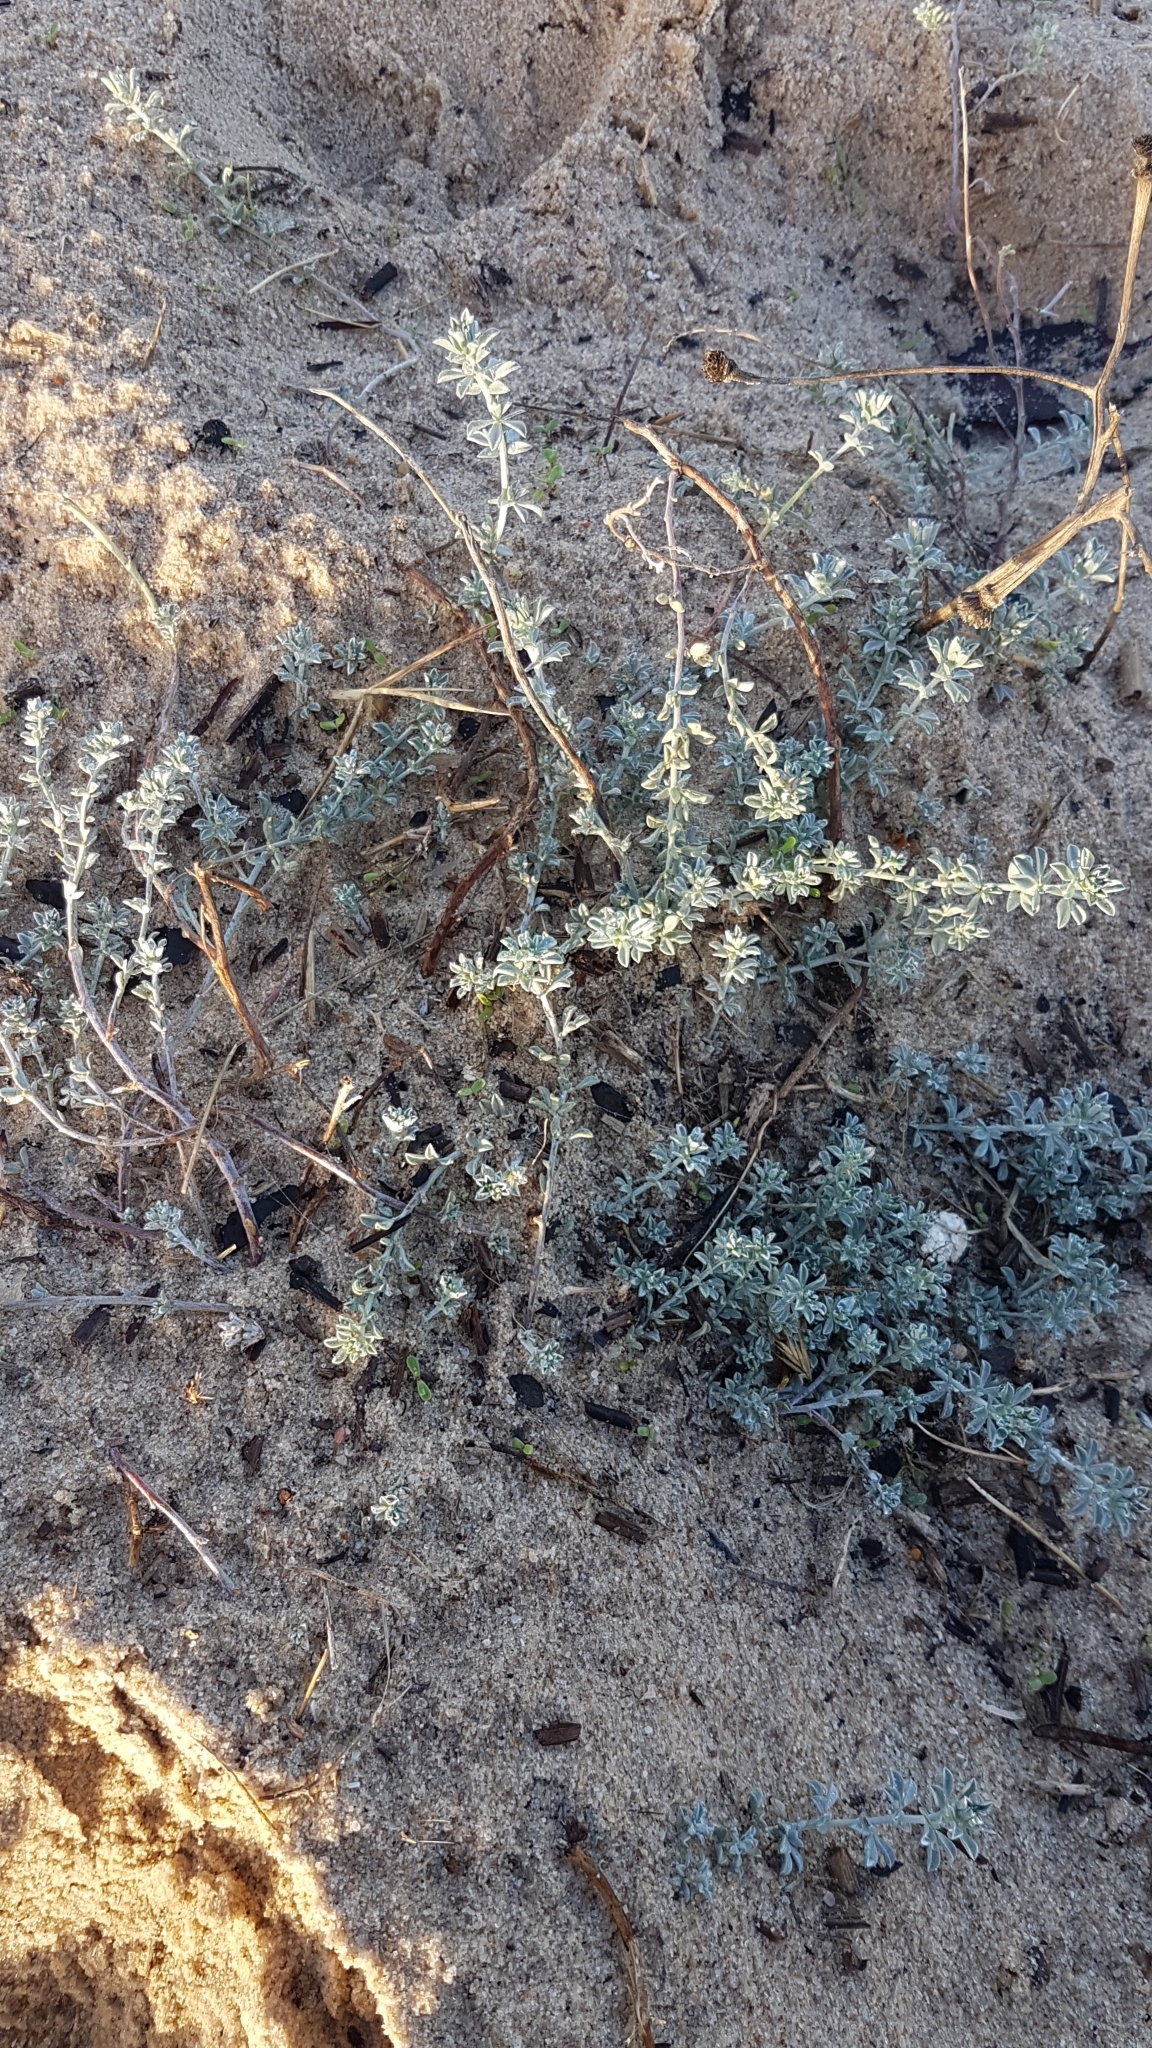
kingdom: Plantae
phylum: Tracheophyta
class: Magnoliopsida
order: Fabales
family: Fabaceae
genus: Lotus
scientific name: Lotus creticus
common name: Cretan bird's-foot trefoil
